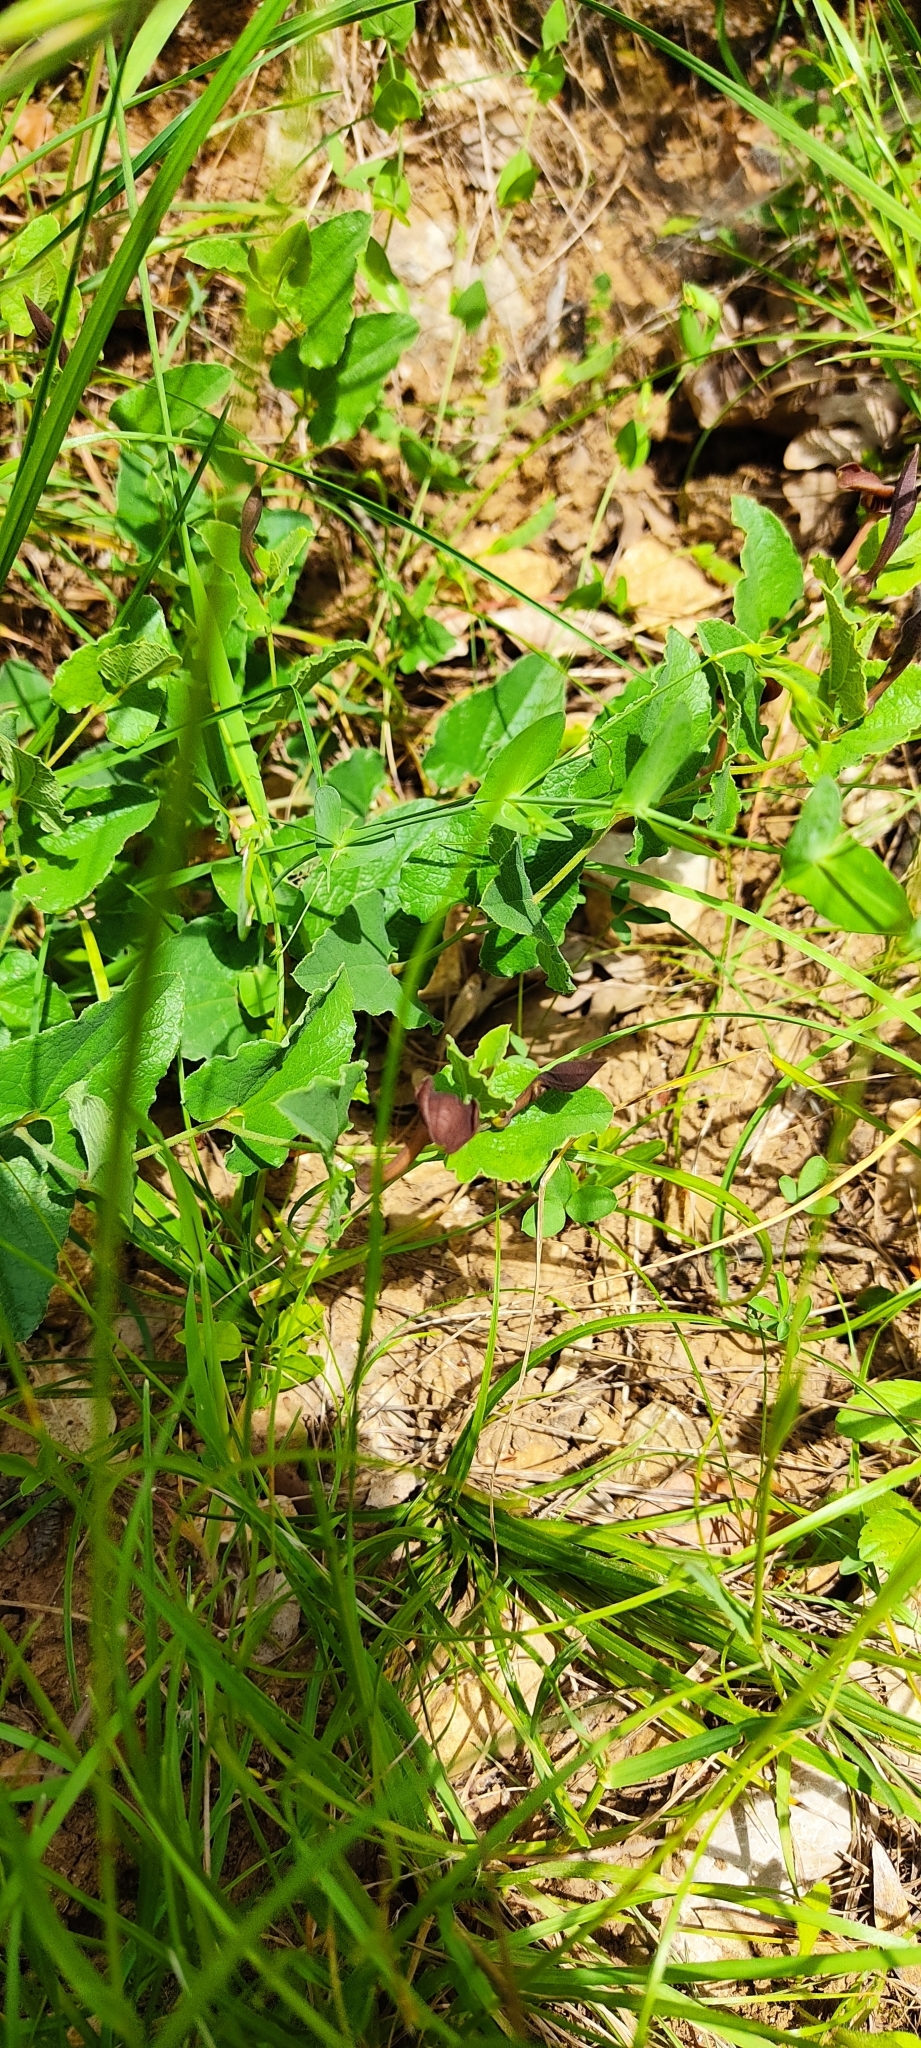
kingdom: Plantae
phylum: Tracheophyta
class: Magnoliopsida
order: Piperales
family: Aristolochiaceae
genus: Aristolochia
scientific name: Aristolochia pistolochia
